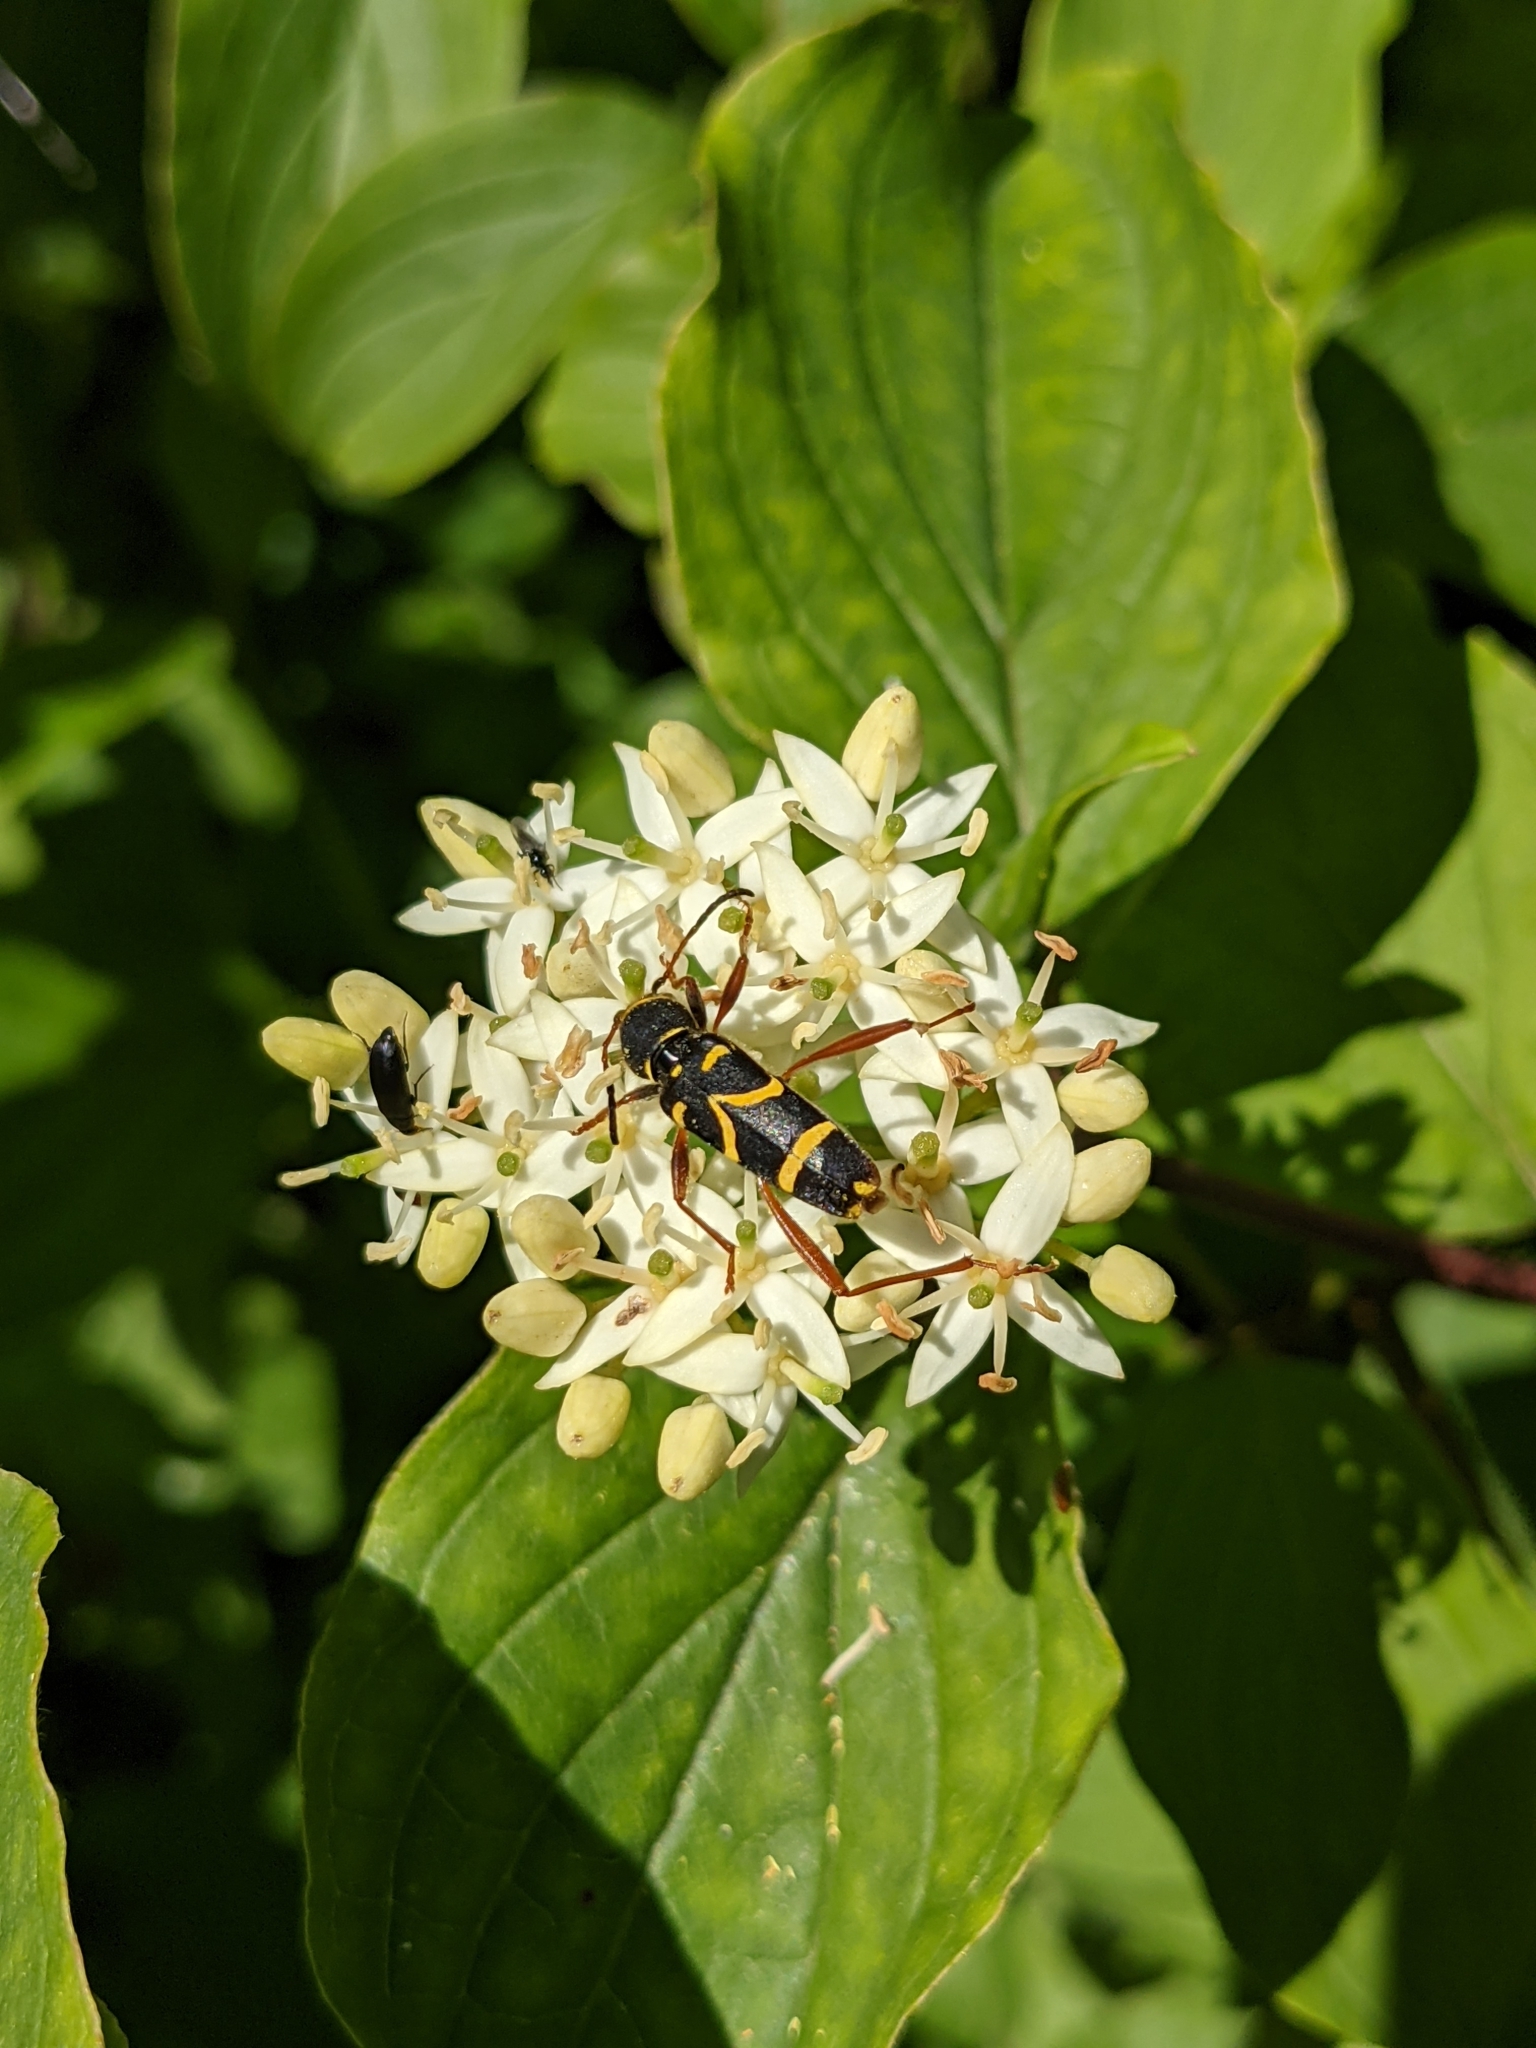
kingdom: Animalia
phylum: Arthropoda
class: Insecta
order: Coleoptera
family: Cerambycidae
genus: Clytus
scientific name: Clytus arietis
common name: Wasp beetle
